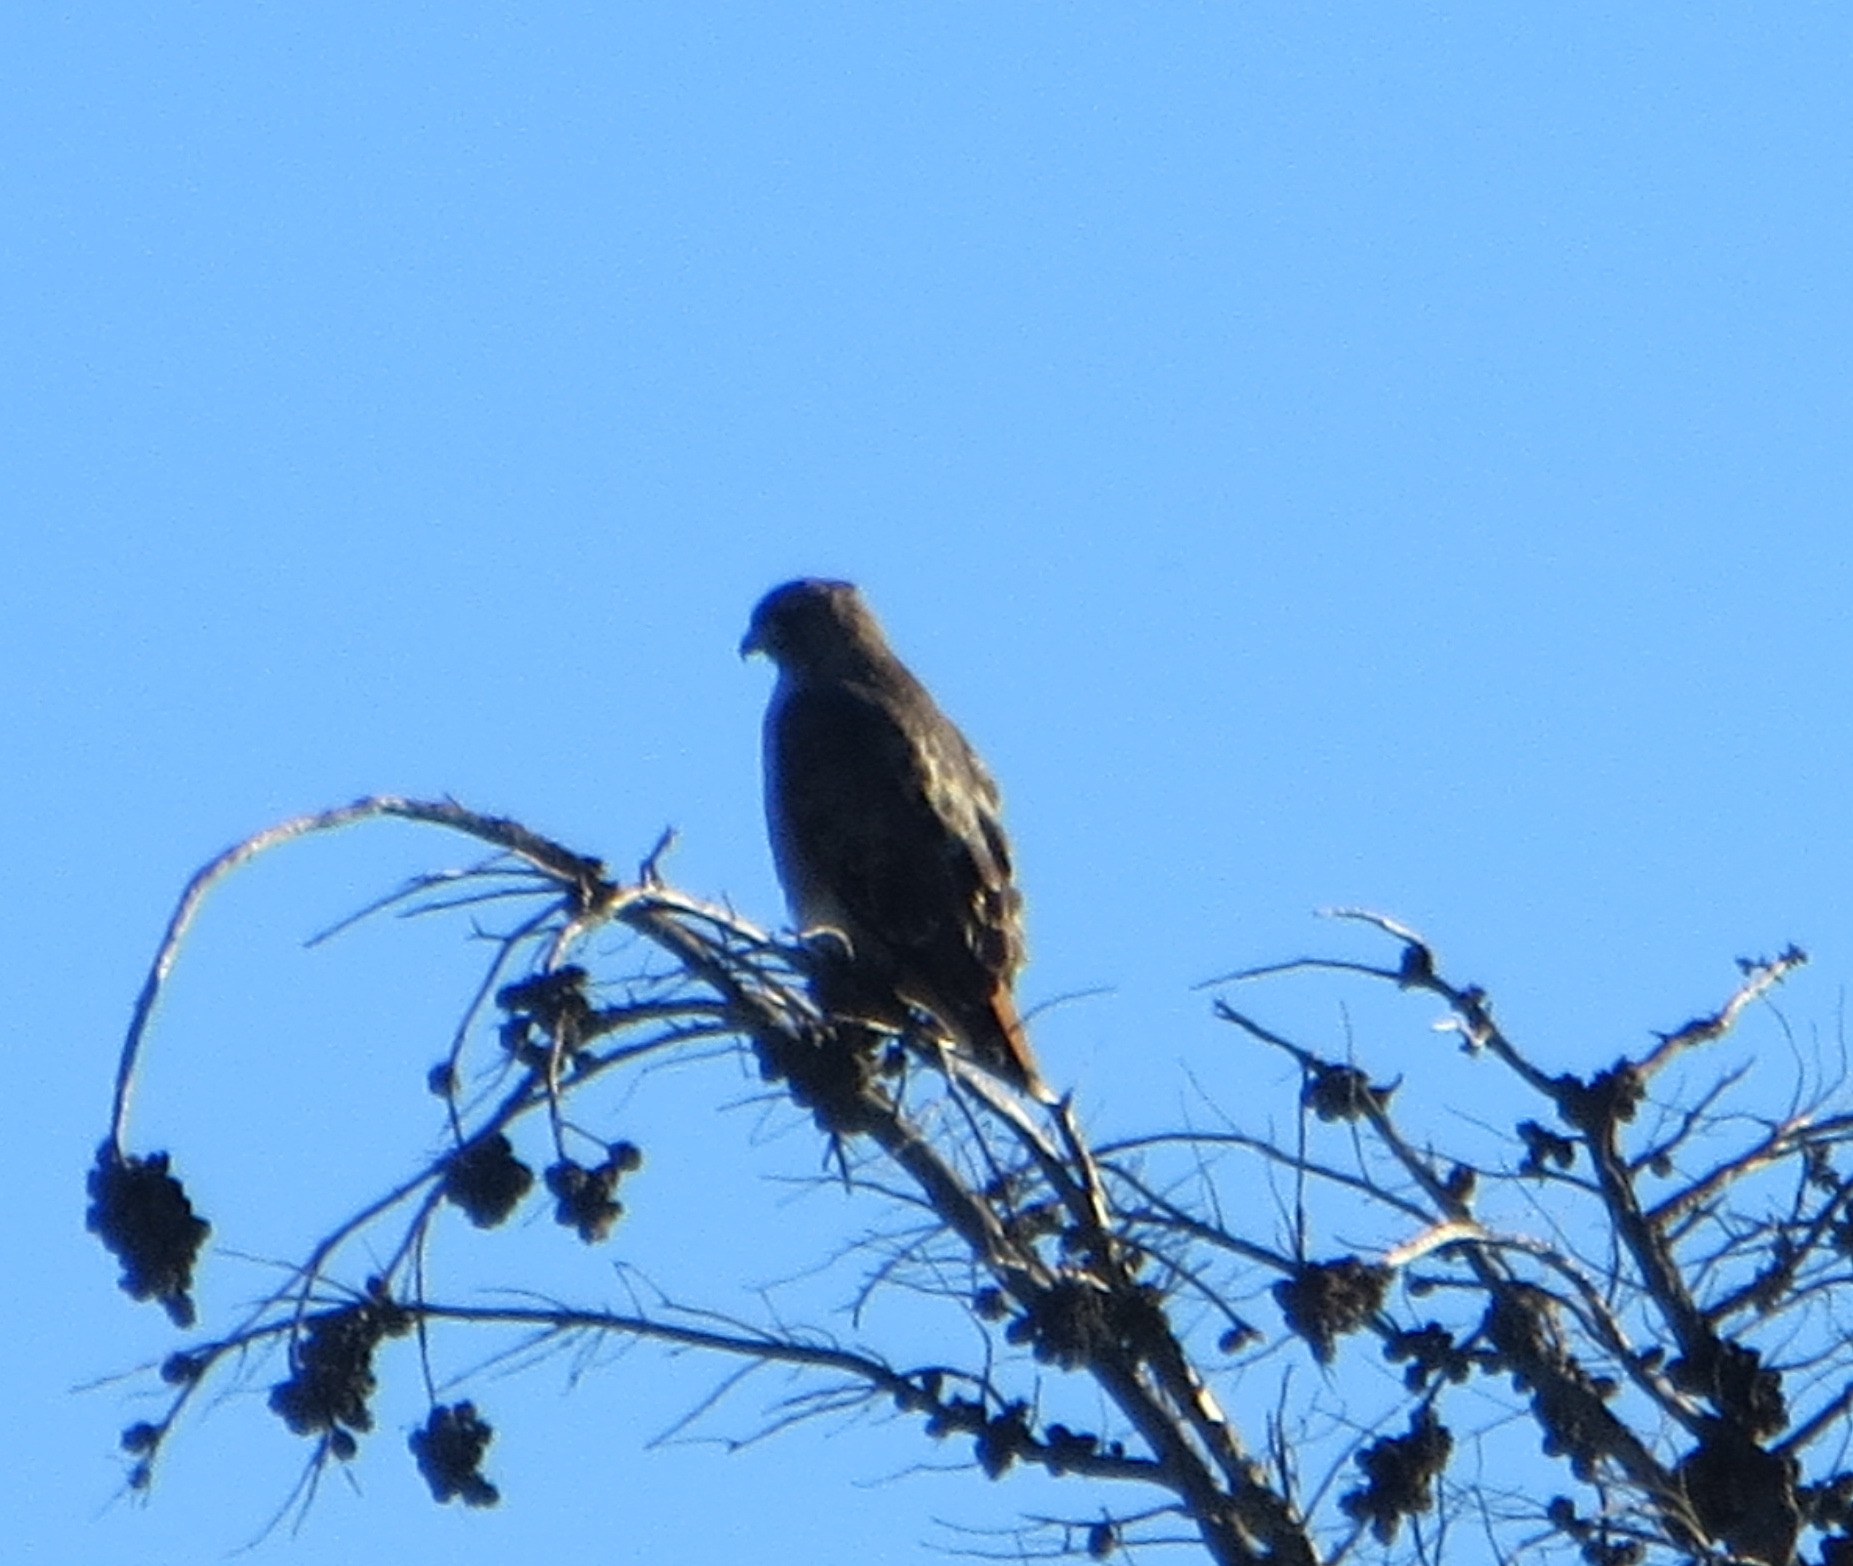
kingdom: Animalia
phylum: Chordata
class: Aves
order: Accipitriformes
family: Accipitridae
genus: Buteo
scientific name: Buteo jamaicensis
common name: Red-tailed hawk
